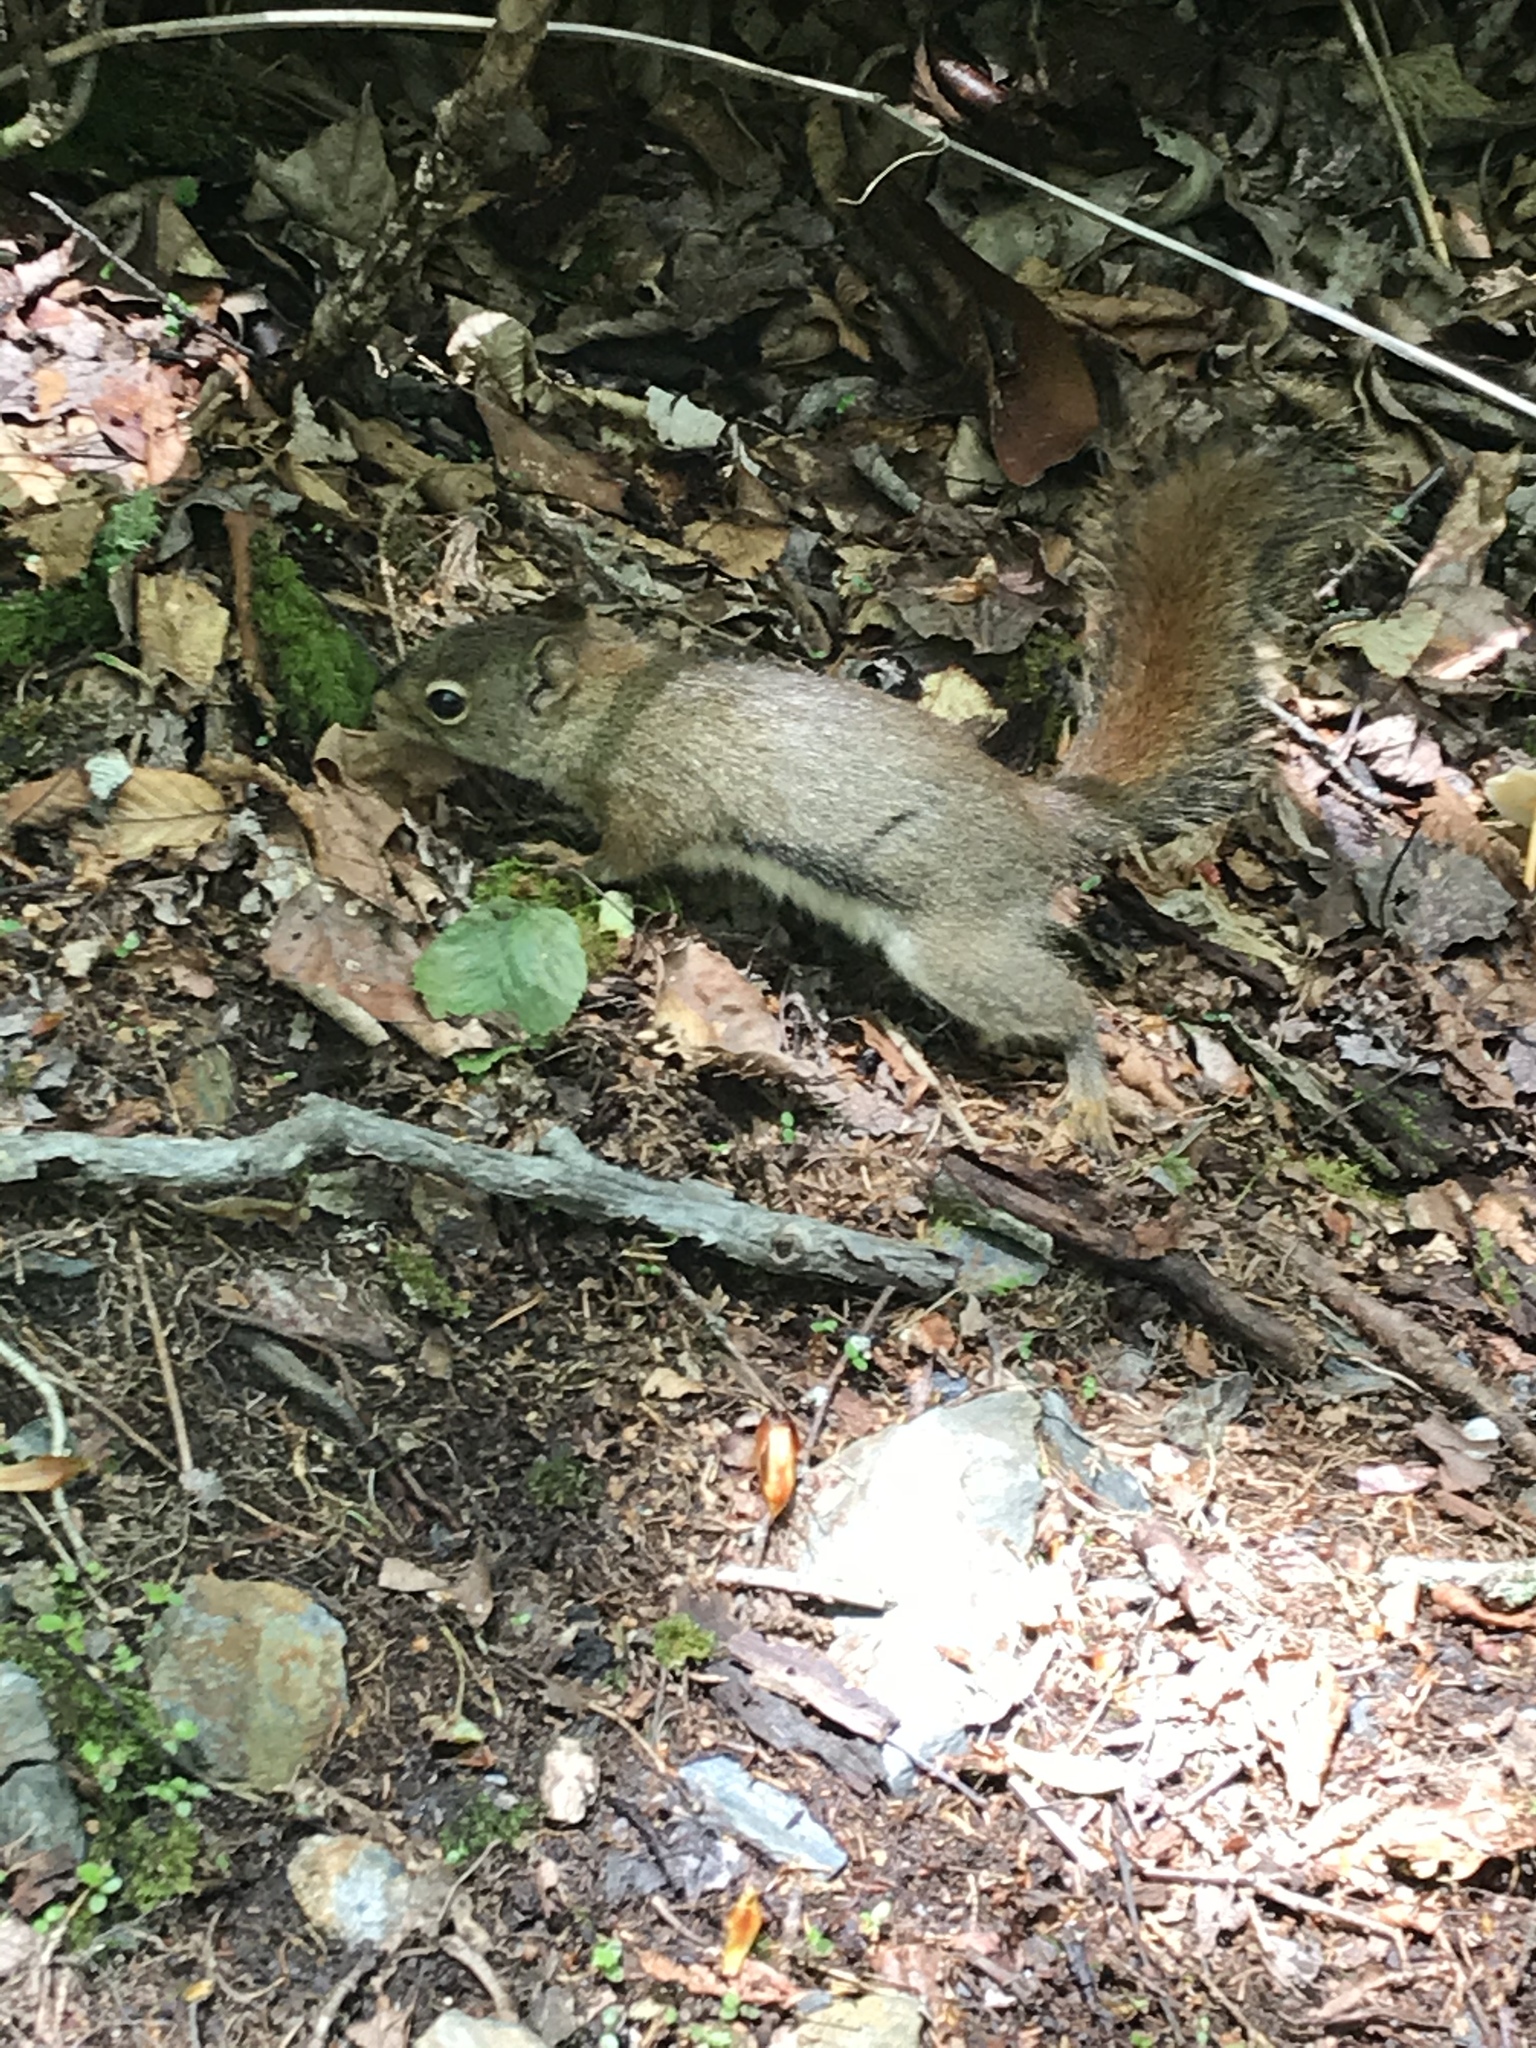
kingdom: Animalia
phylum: Chordata
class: Mammalia
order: Rodentia
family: Sciuridae
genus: Tamiasciurus
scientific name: Tamiasciurus hudsonicus
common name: Red squirrel
